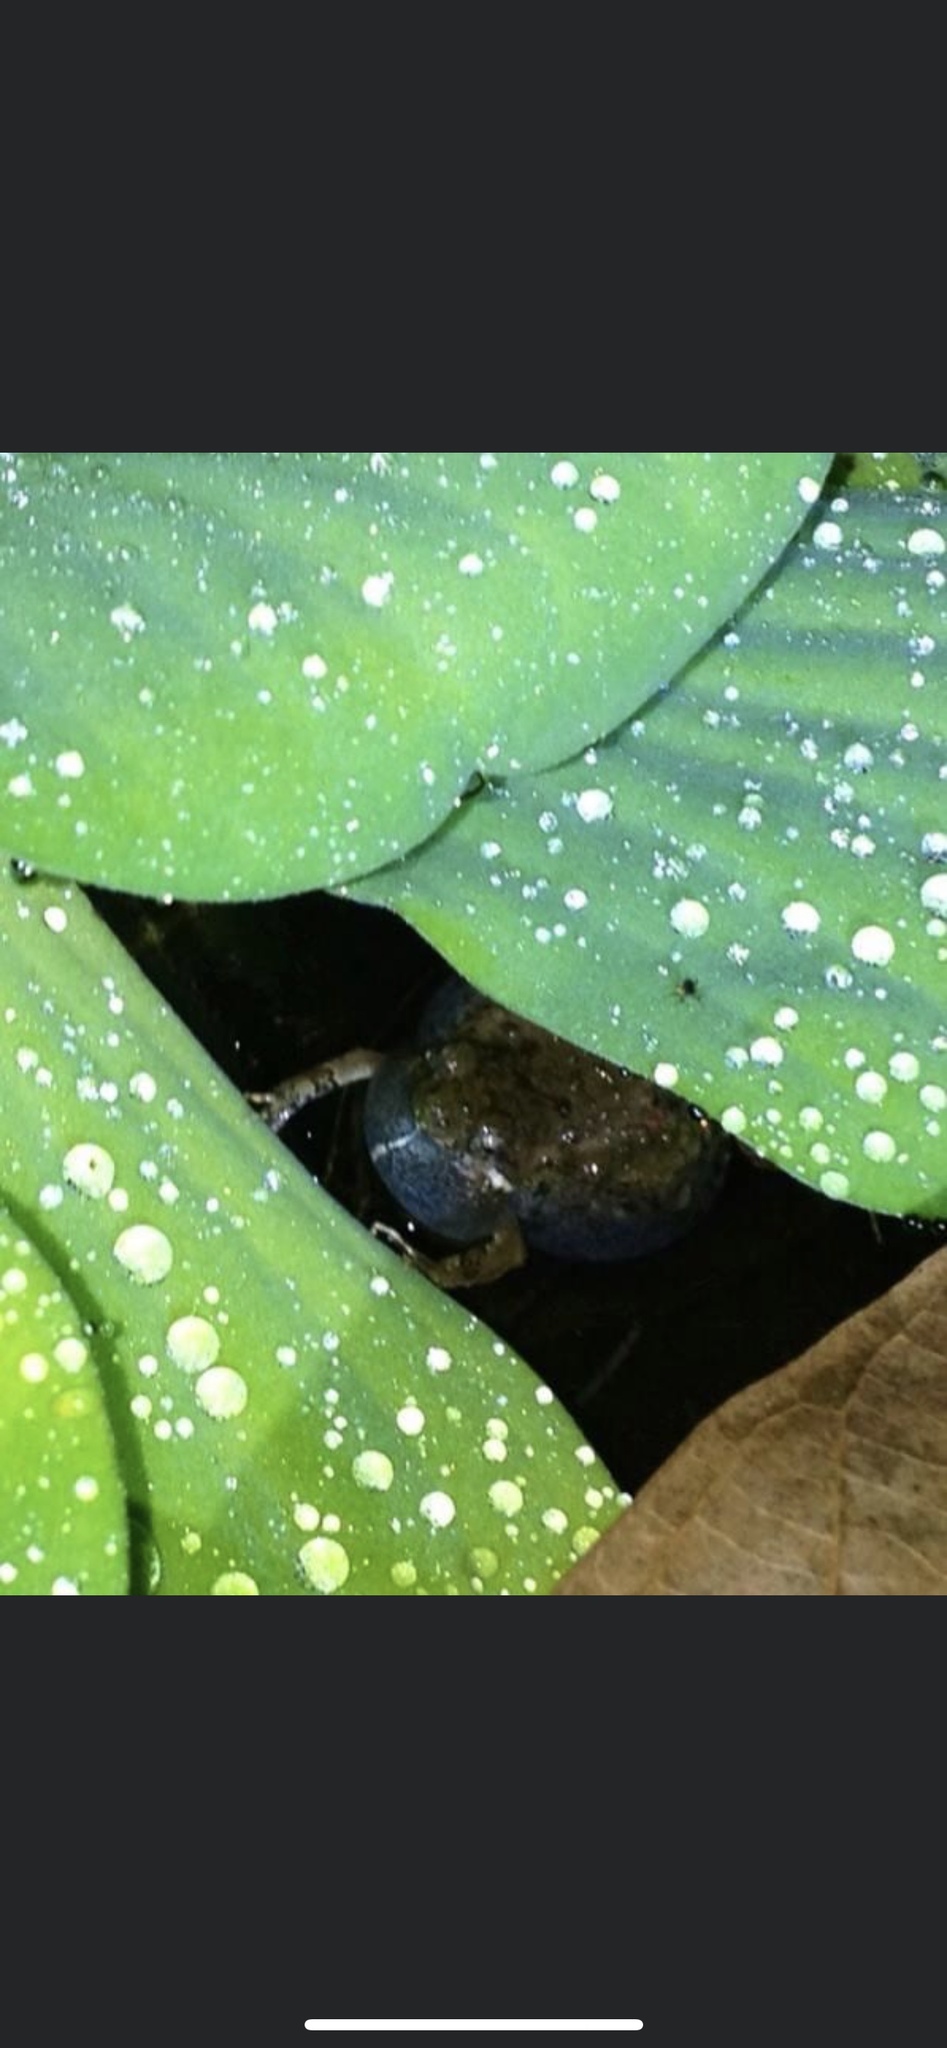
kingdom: Animalia
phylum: Chordata
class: Amphibia
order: Anura
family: Leptodactylidae
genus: Engystomops
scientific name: Engystomops pustulosus
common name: Tungara frog
